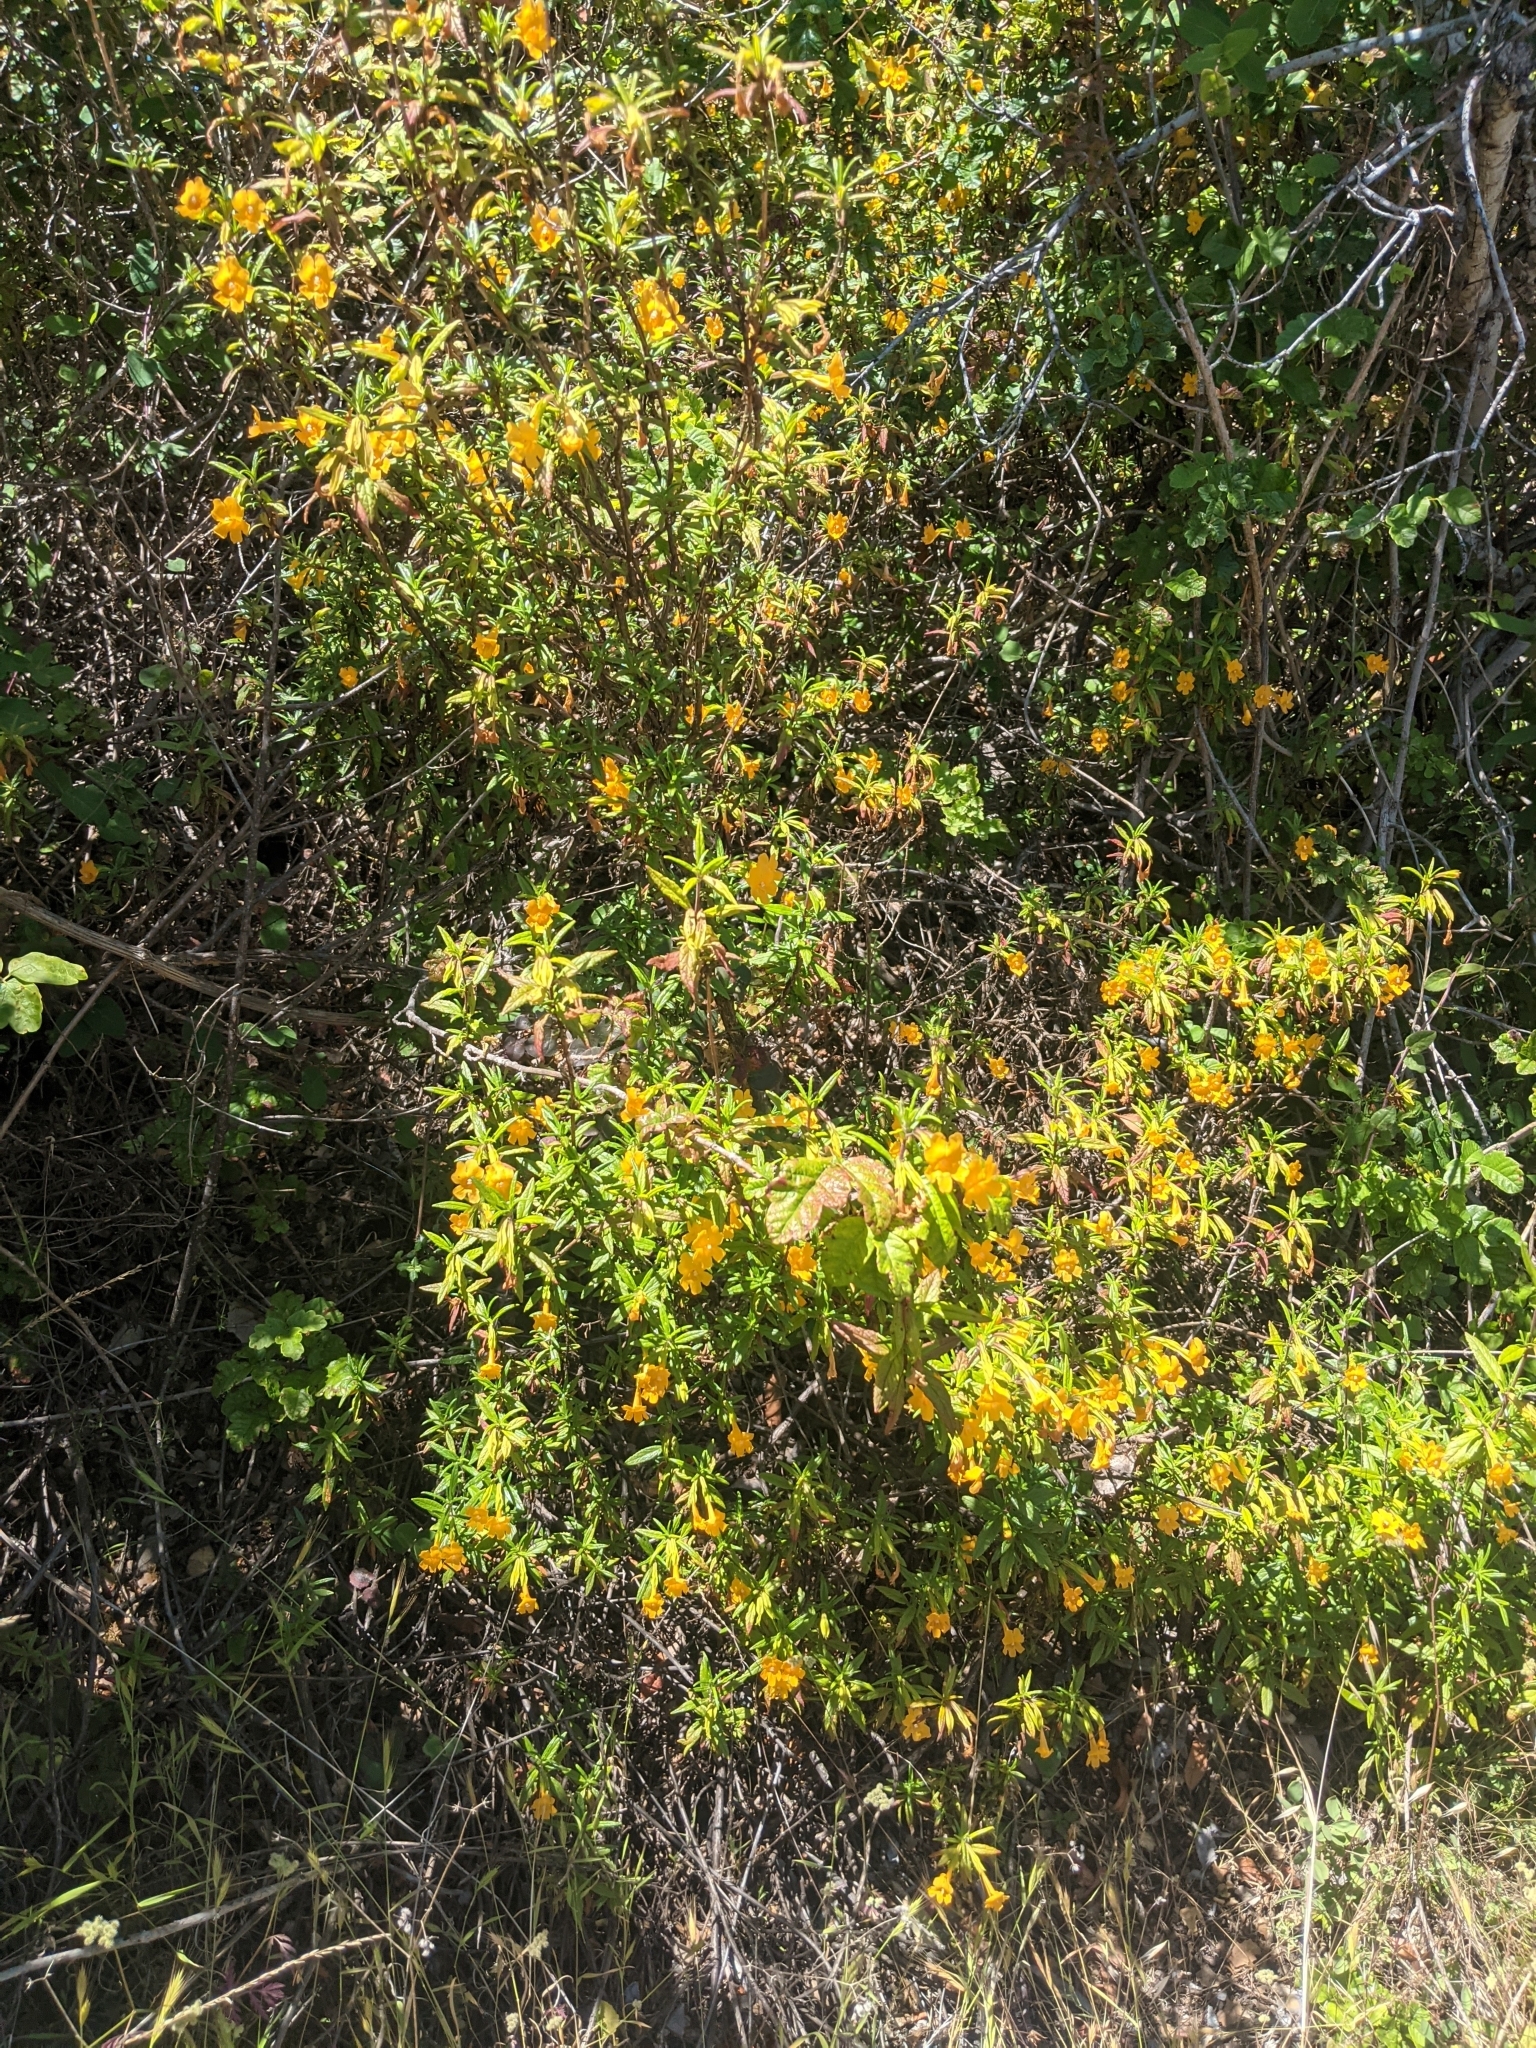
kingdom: Plantae
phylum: Tracheophyta
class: Magnoliopsida
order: Lamiales
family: Phrymaceae
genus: Diplacus
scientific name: Diplacus aurantiacus
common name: Bush monkey-flower
